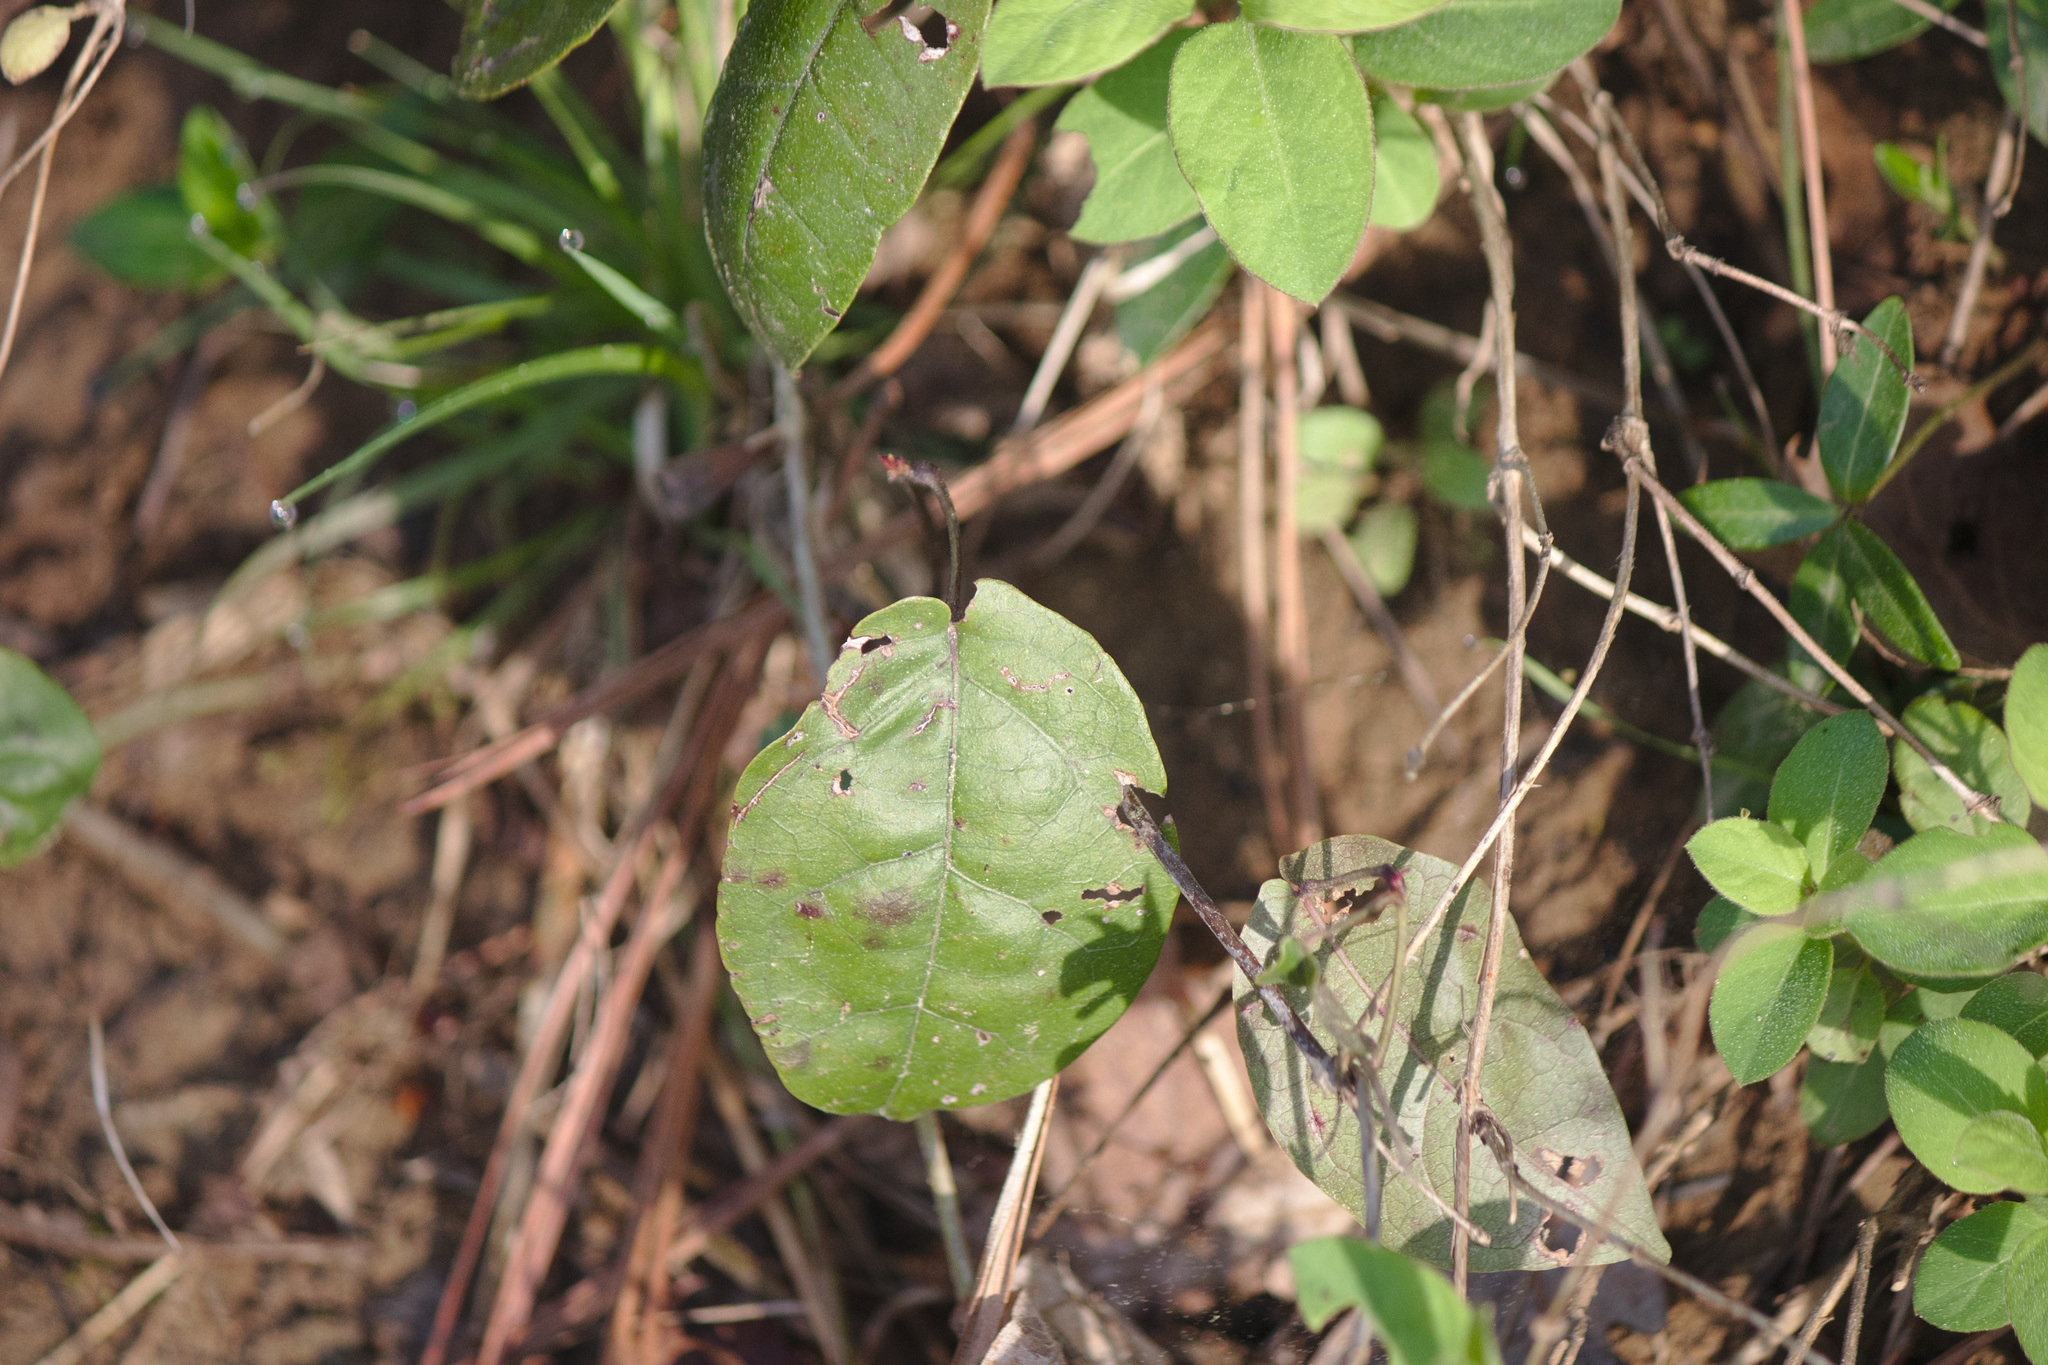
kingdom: Plantae
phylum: Tracheophyta
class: Magnoliopsida
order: Lamiales
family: Bignoniaceae
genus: Bignonia
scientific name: Bignonia capreolata
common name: Crossvine
